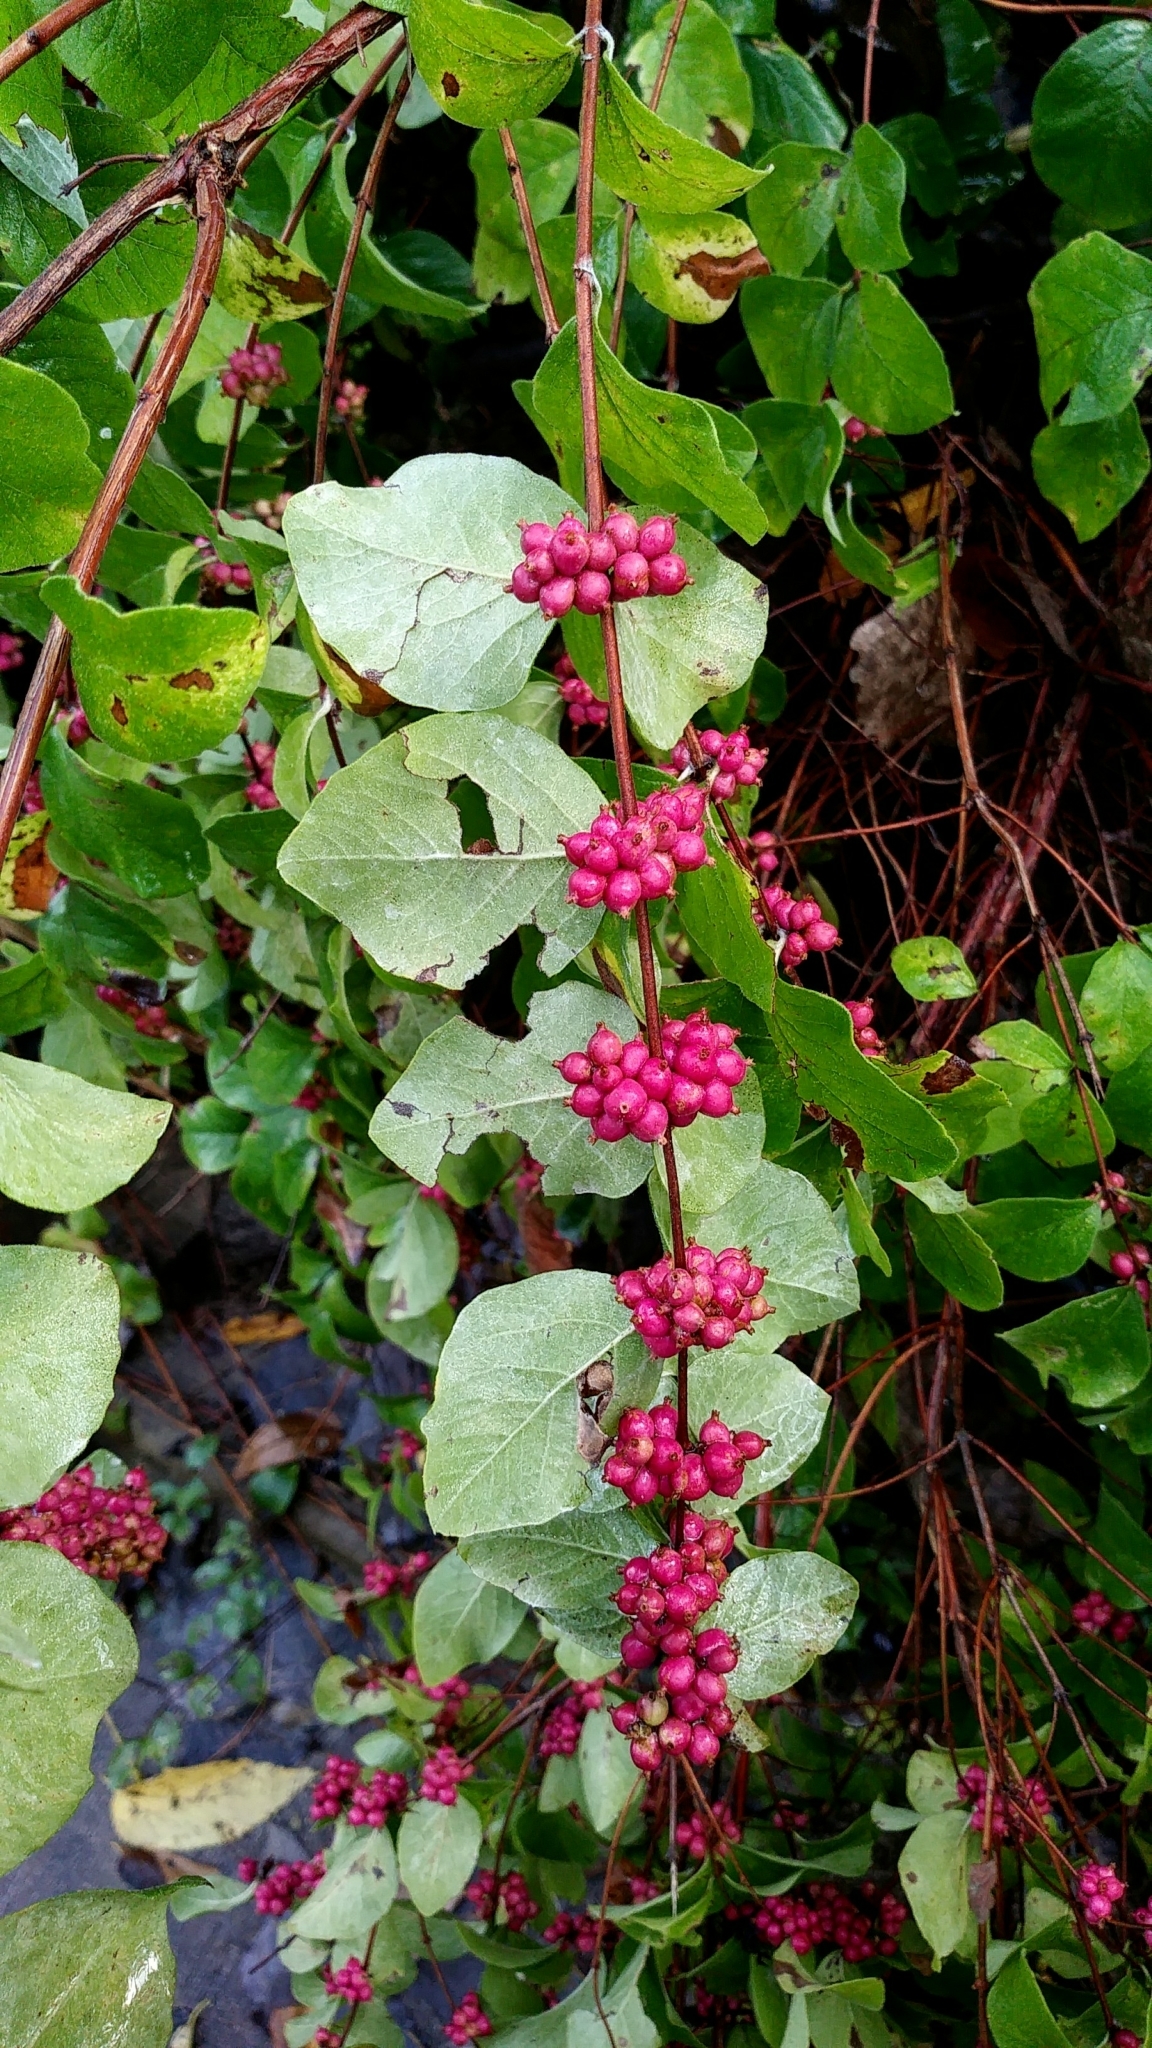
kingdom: Plantae
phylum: Tracheophyta
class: Magnoliopsida
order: Dipsacales
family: Caprifoliaceae
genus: Symphoricarpos
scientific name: Symphoricarpos orbiculatus
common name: Coralberry
